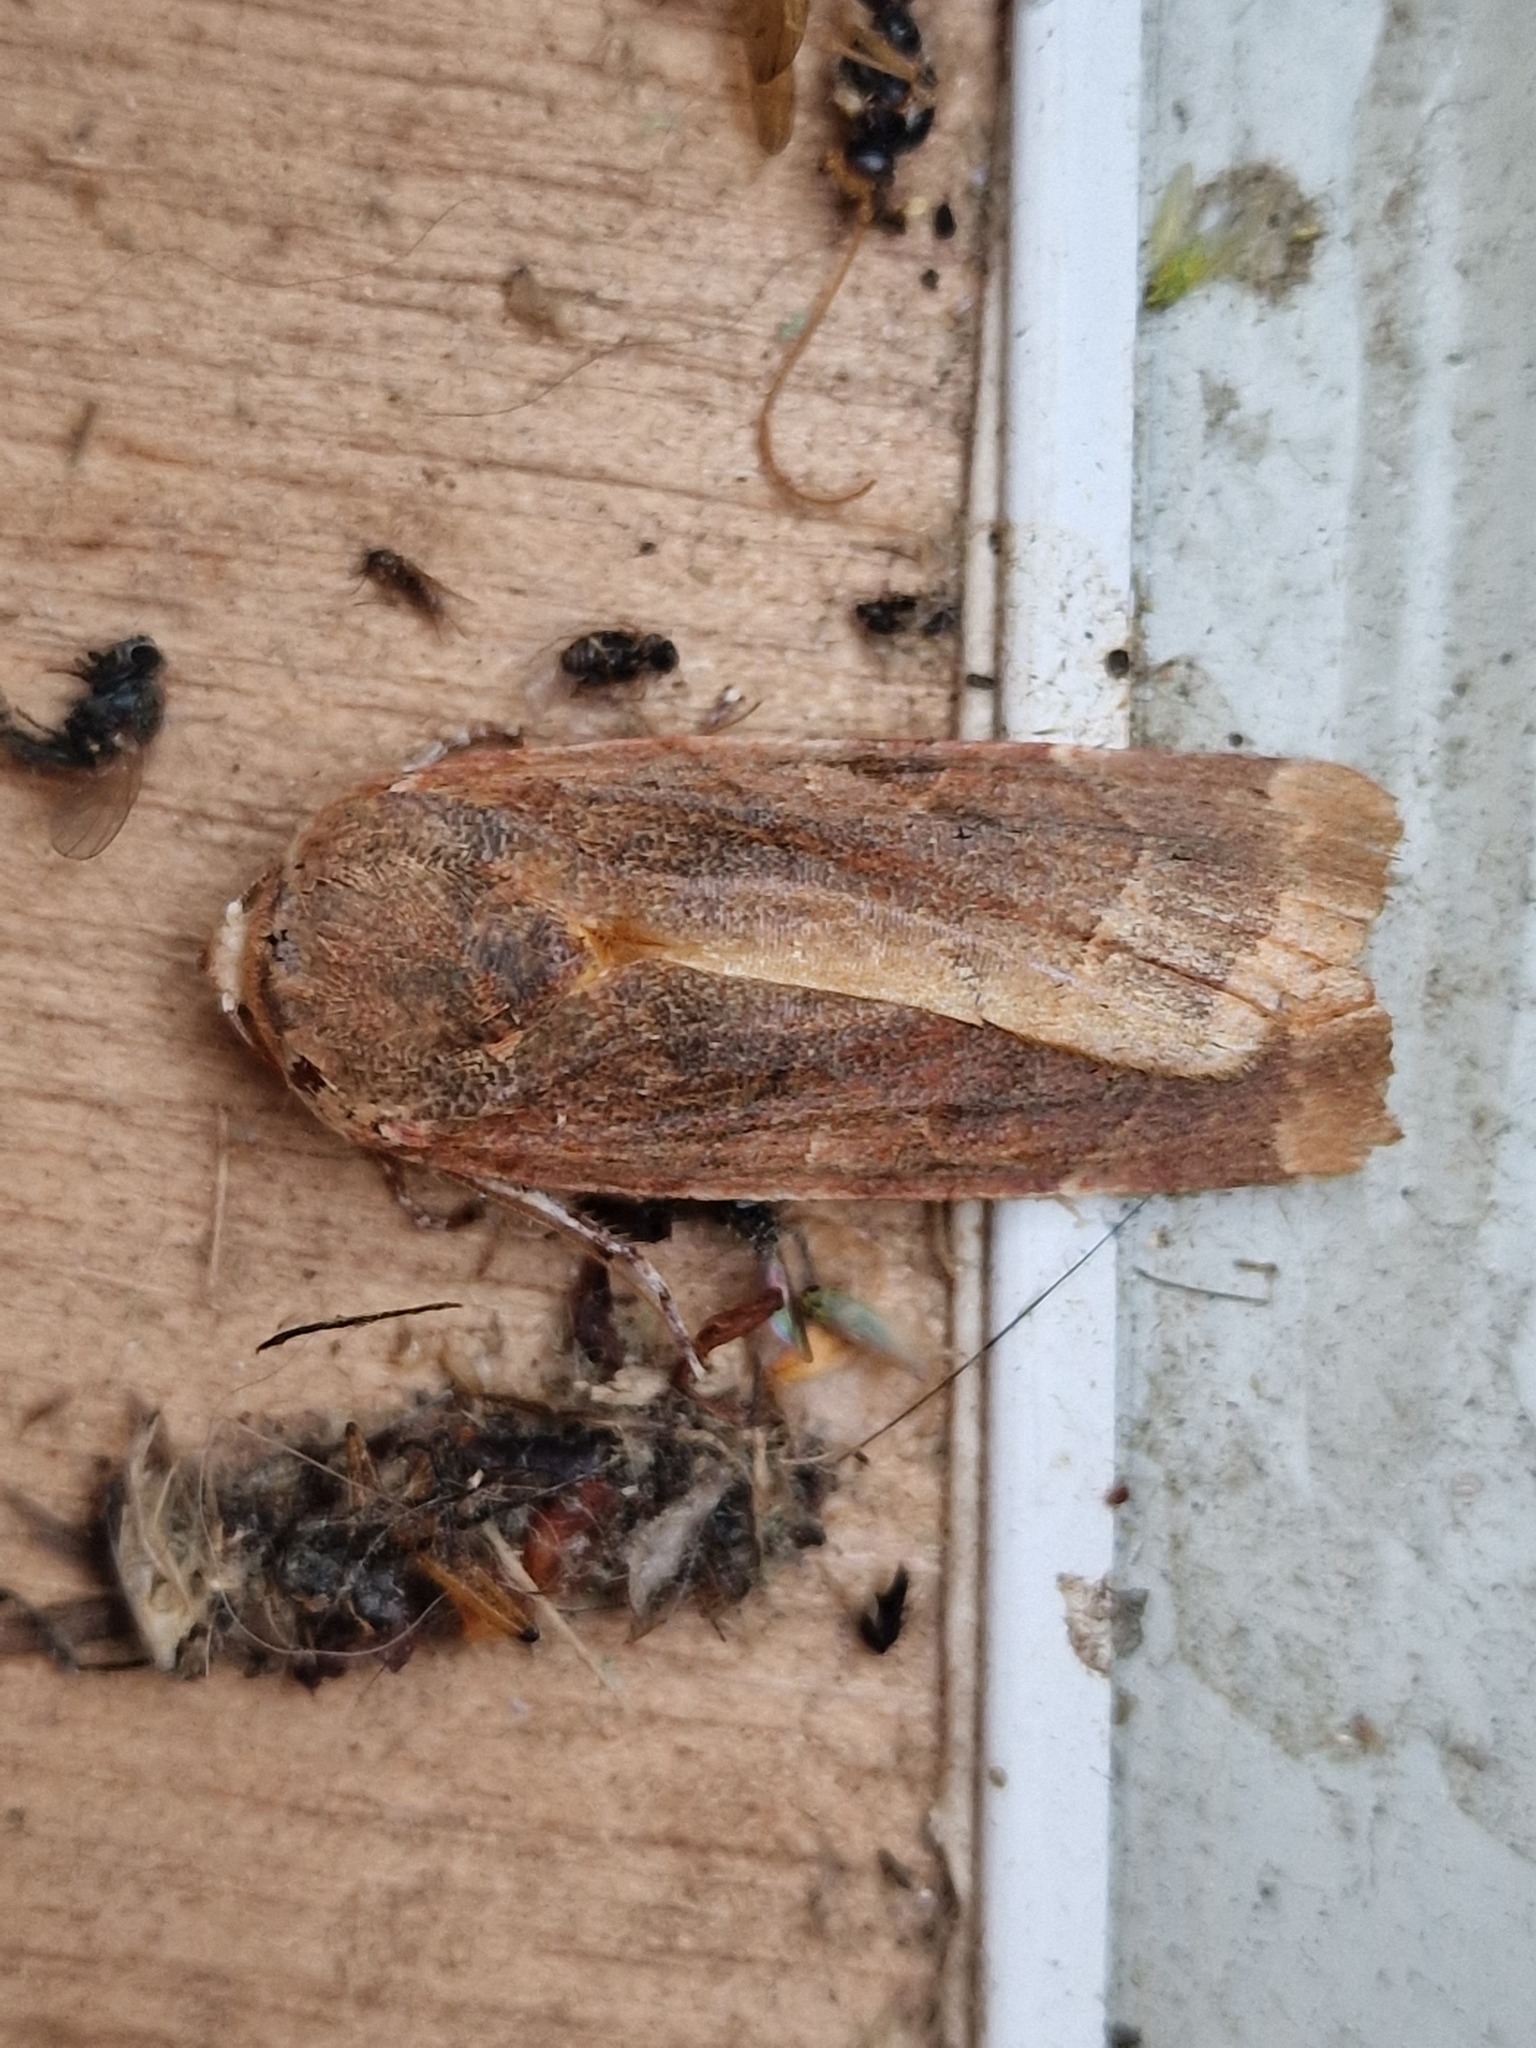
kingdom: Animalia
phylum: Arthropoda
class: Insecta
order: Lepidoptera
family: Noctuidae
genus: Noctua
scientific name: Noctua fimbriata
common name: Broad-bordered yellow underwing
